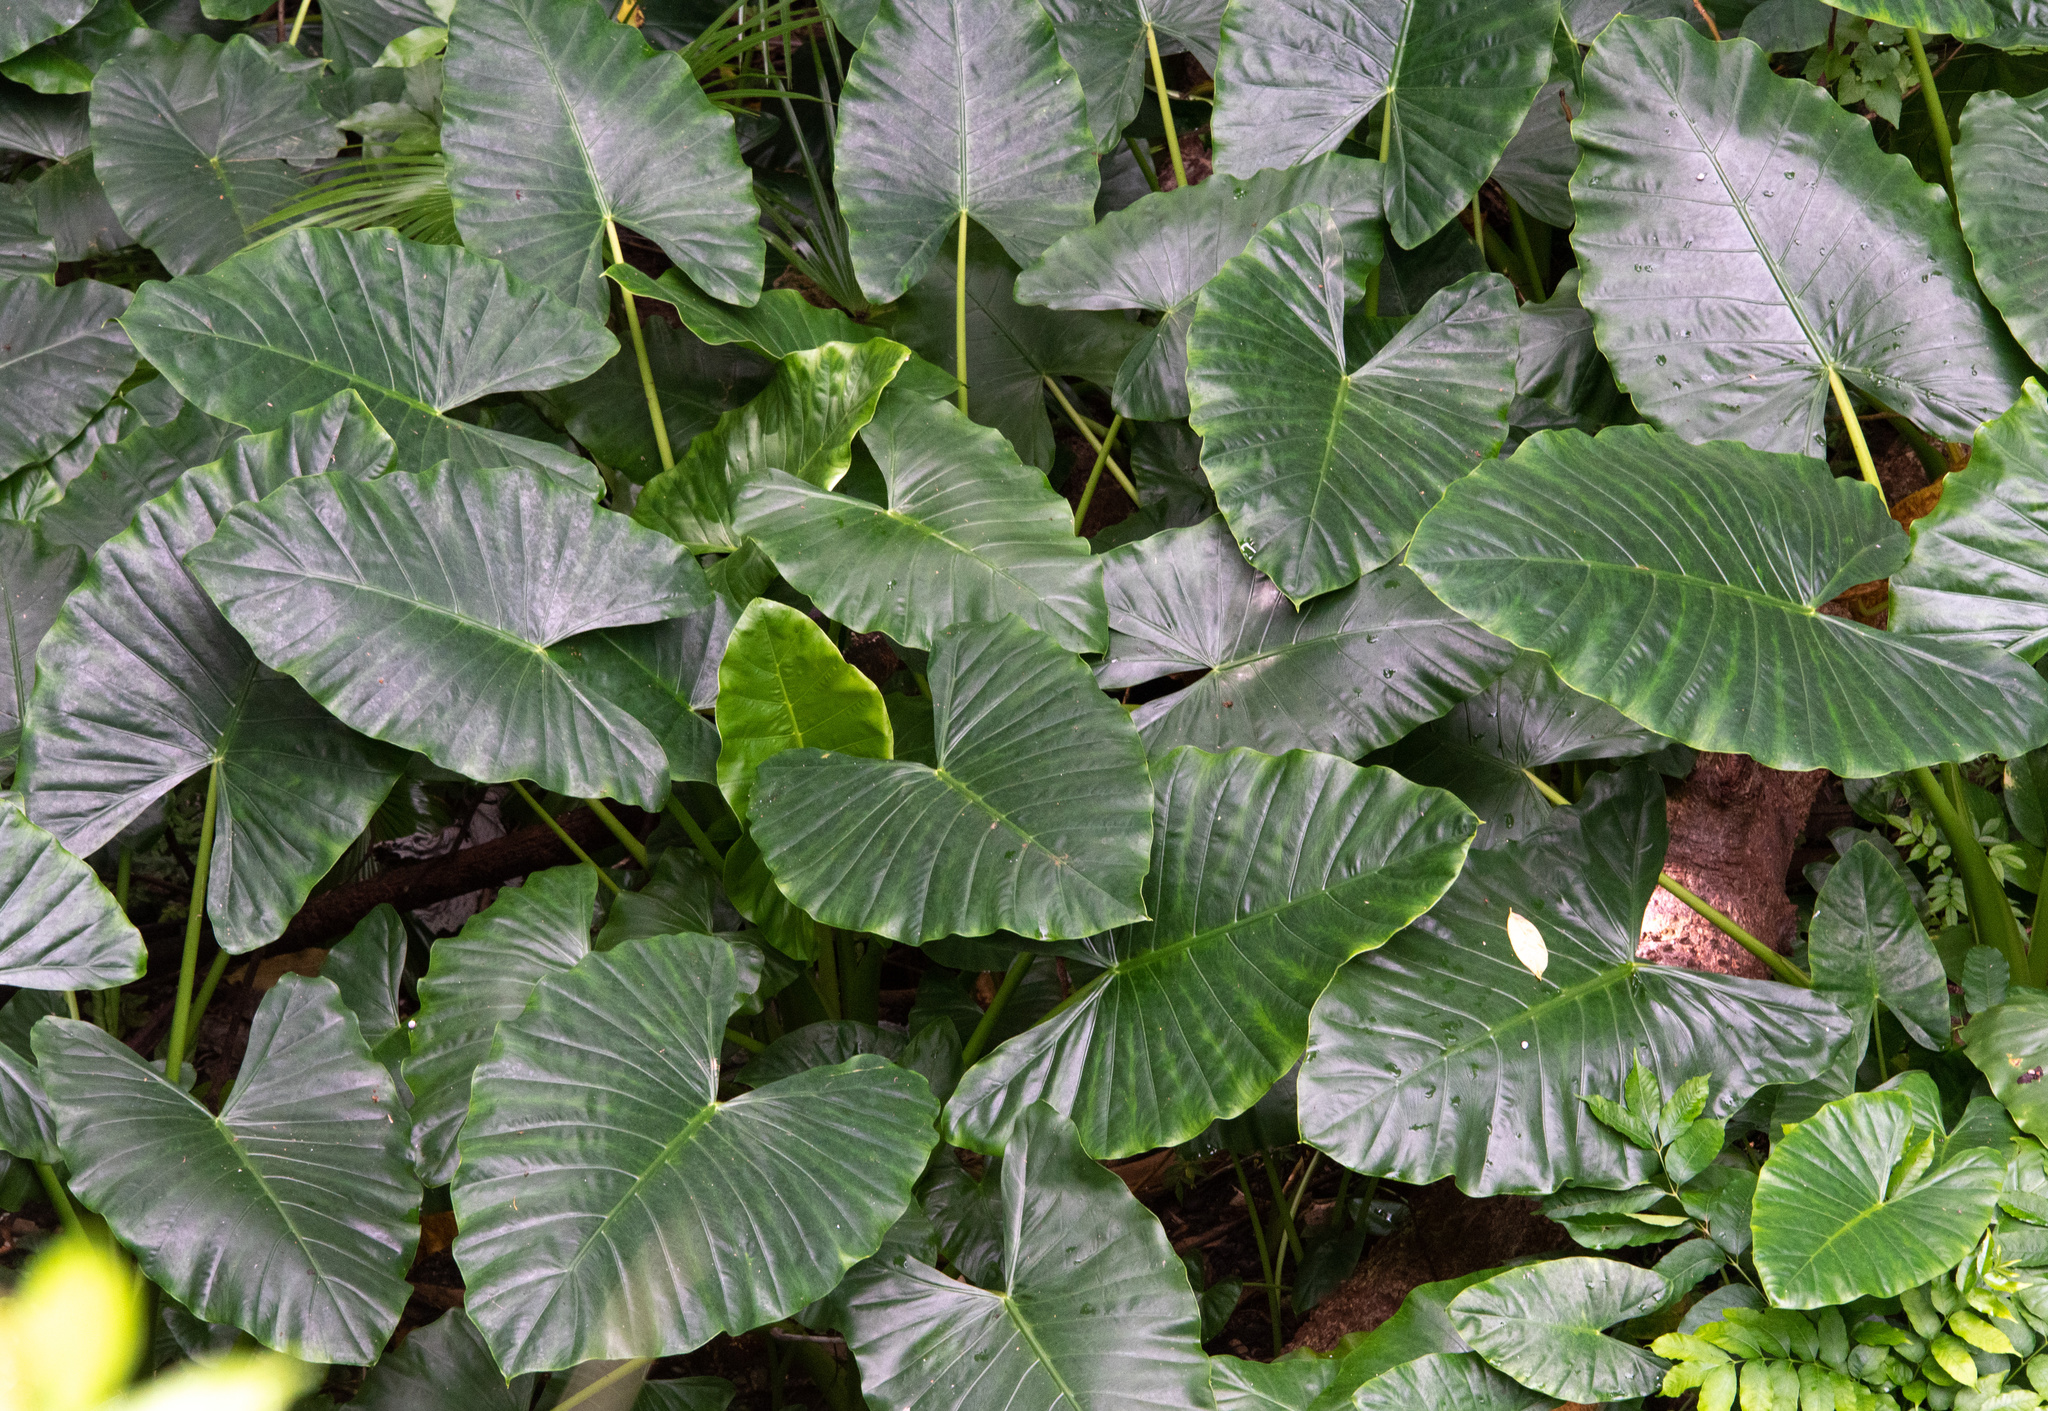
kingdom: Plantae
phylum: Tracheophyta
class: Liliopsida
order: Alismatales
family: Araceae
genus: Alocasia
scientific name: Alocasia macrorrhizos
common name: Giant taro
